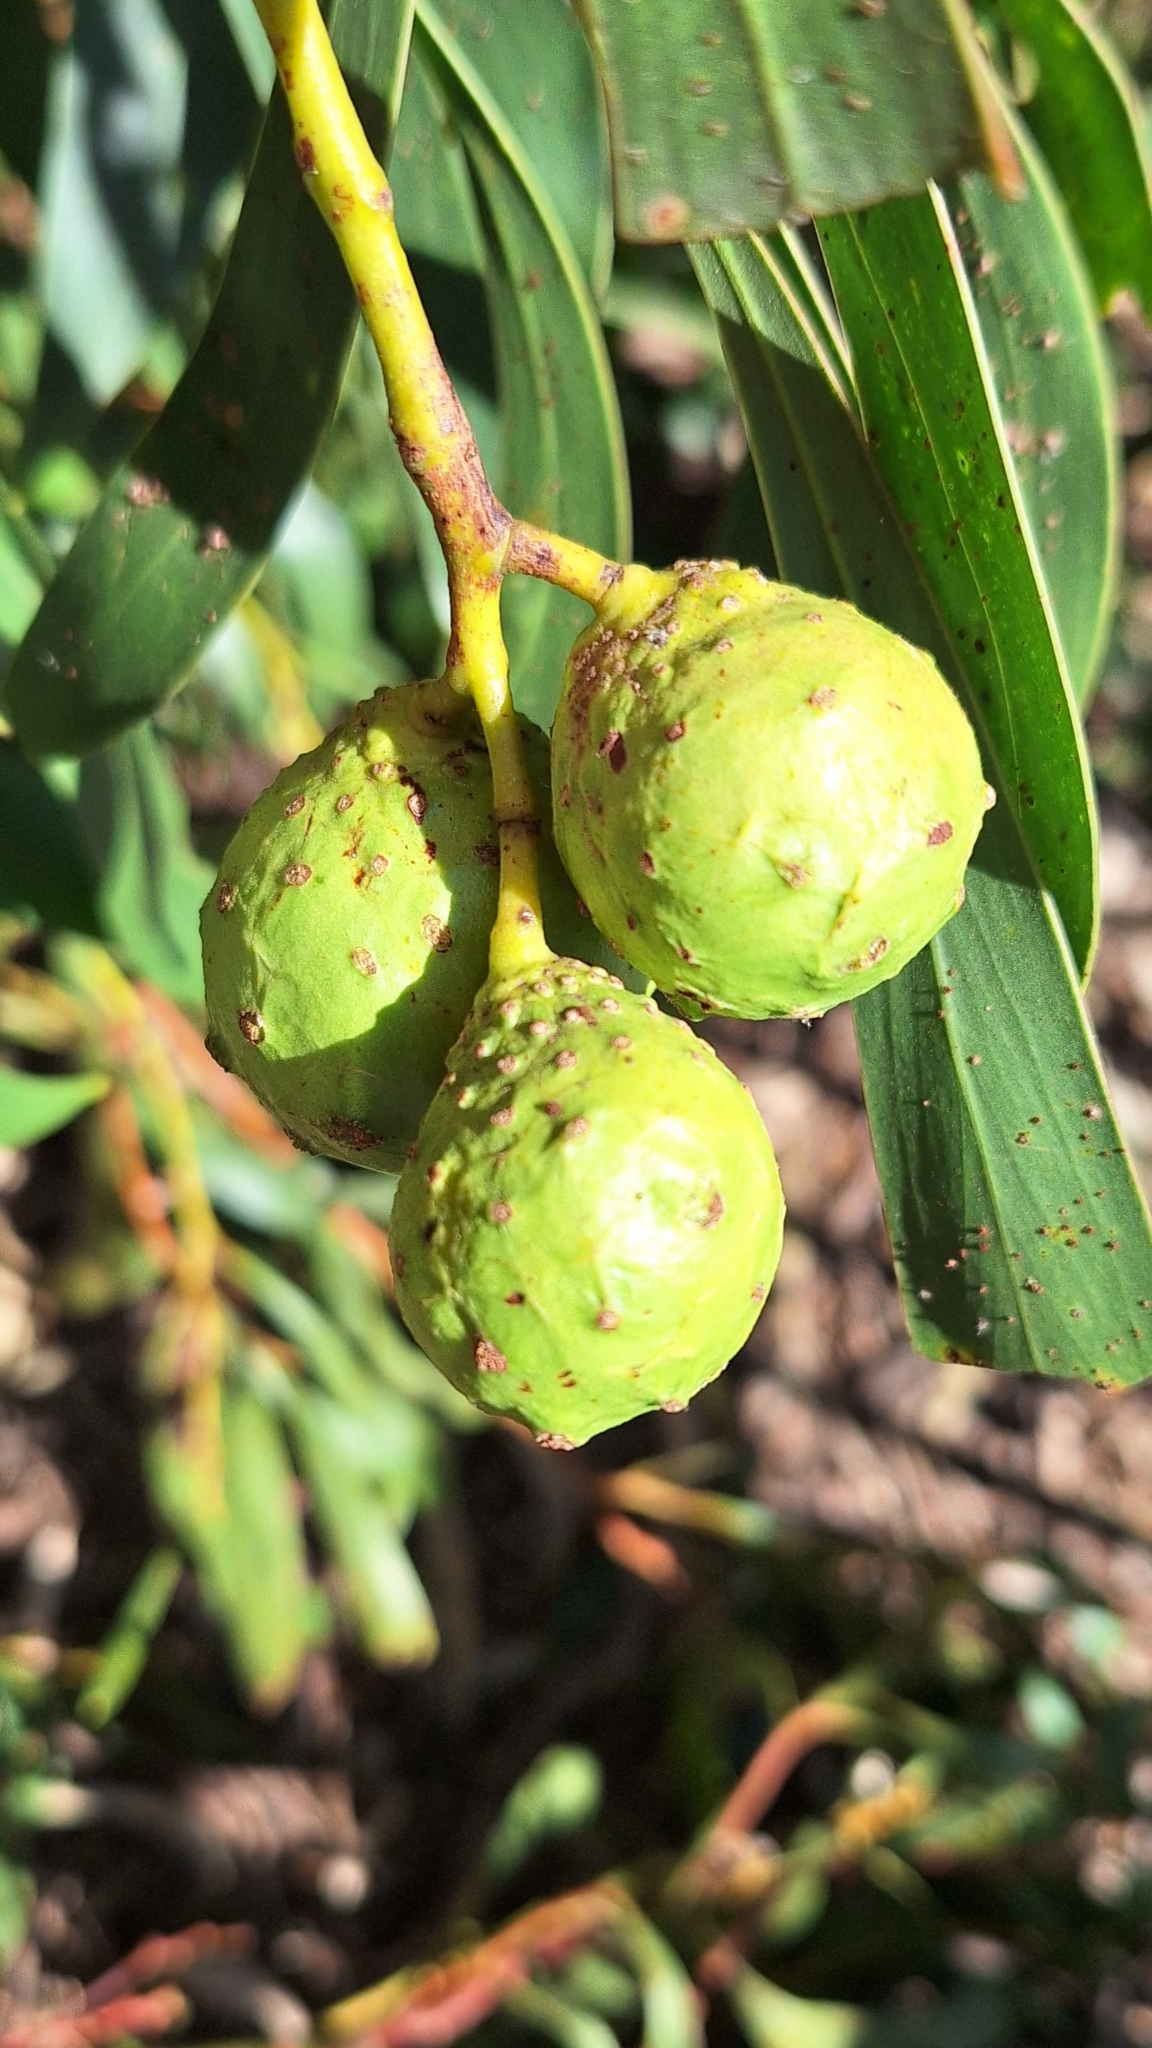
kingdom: Animalia
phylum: Arthropoda
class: Insecta
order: Hymenoptera
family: Pteromalidae
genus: Trichilogaster
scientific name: Trichilogaster signiventris
